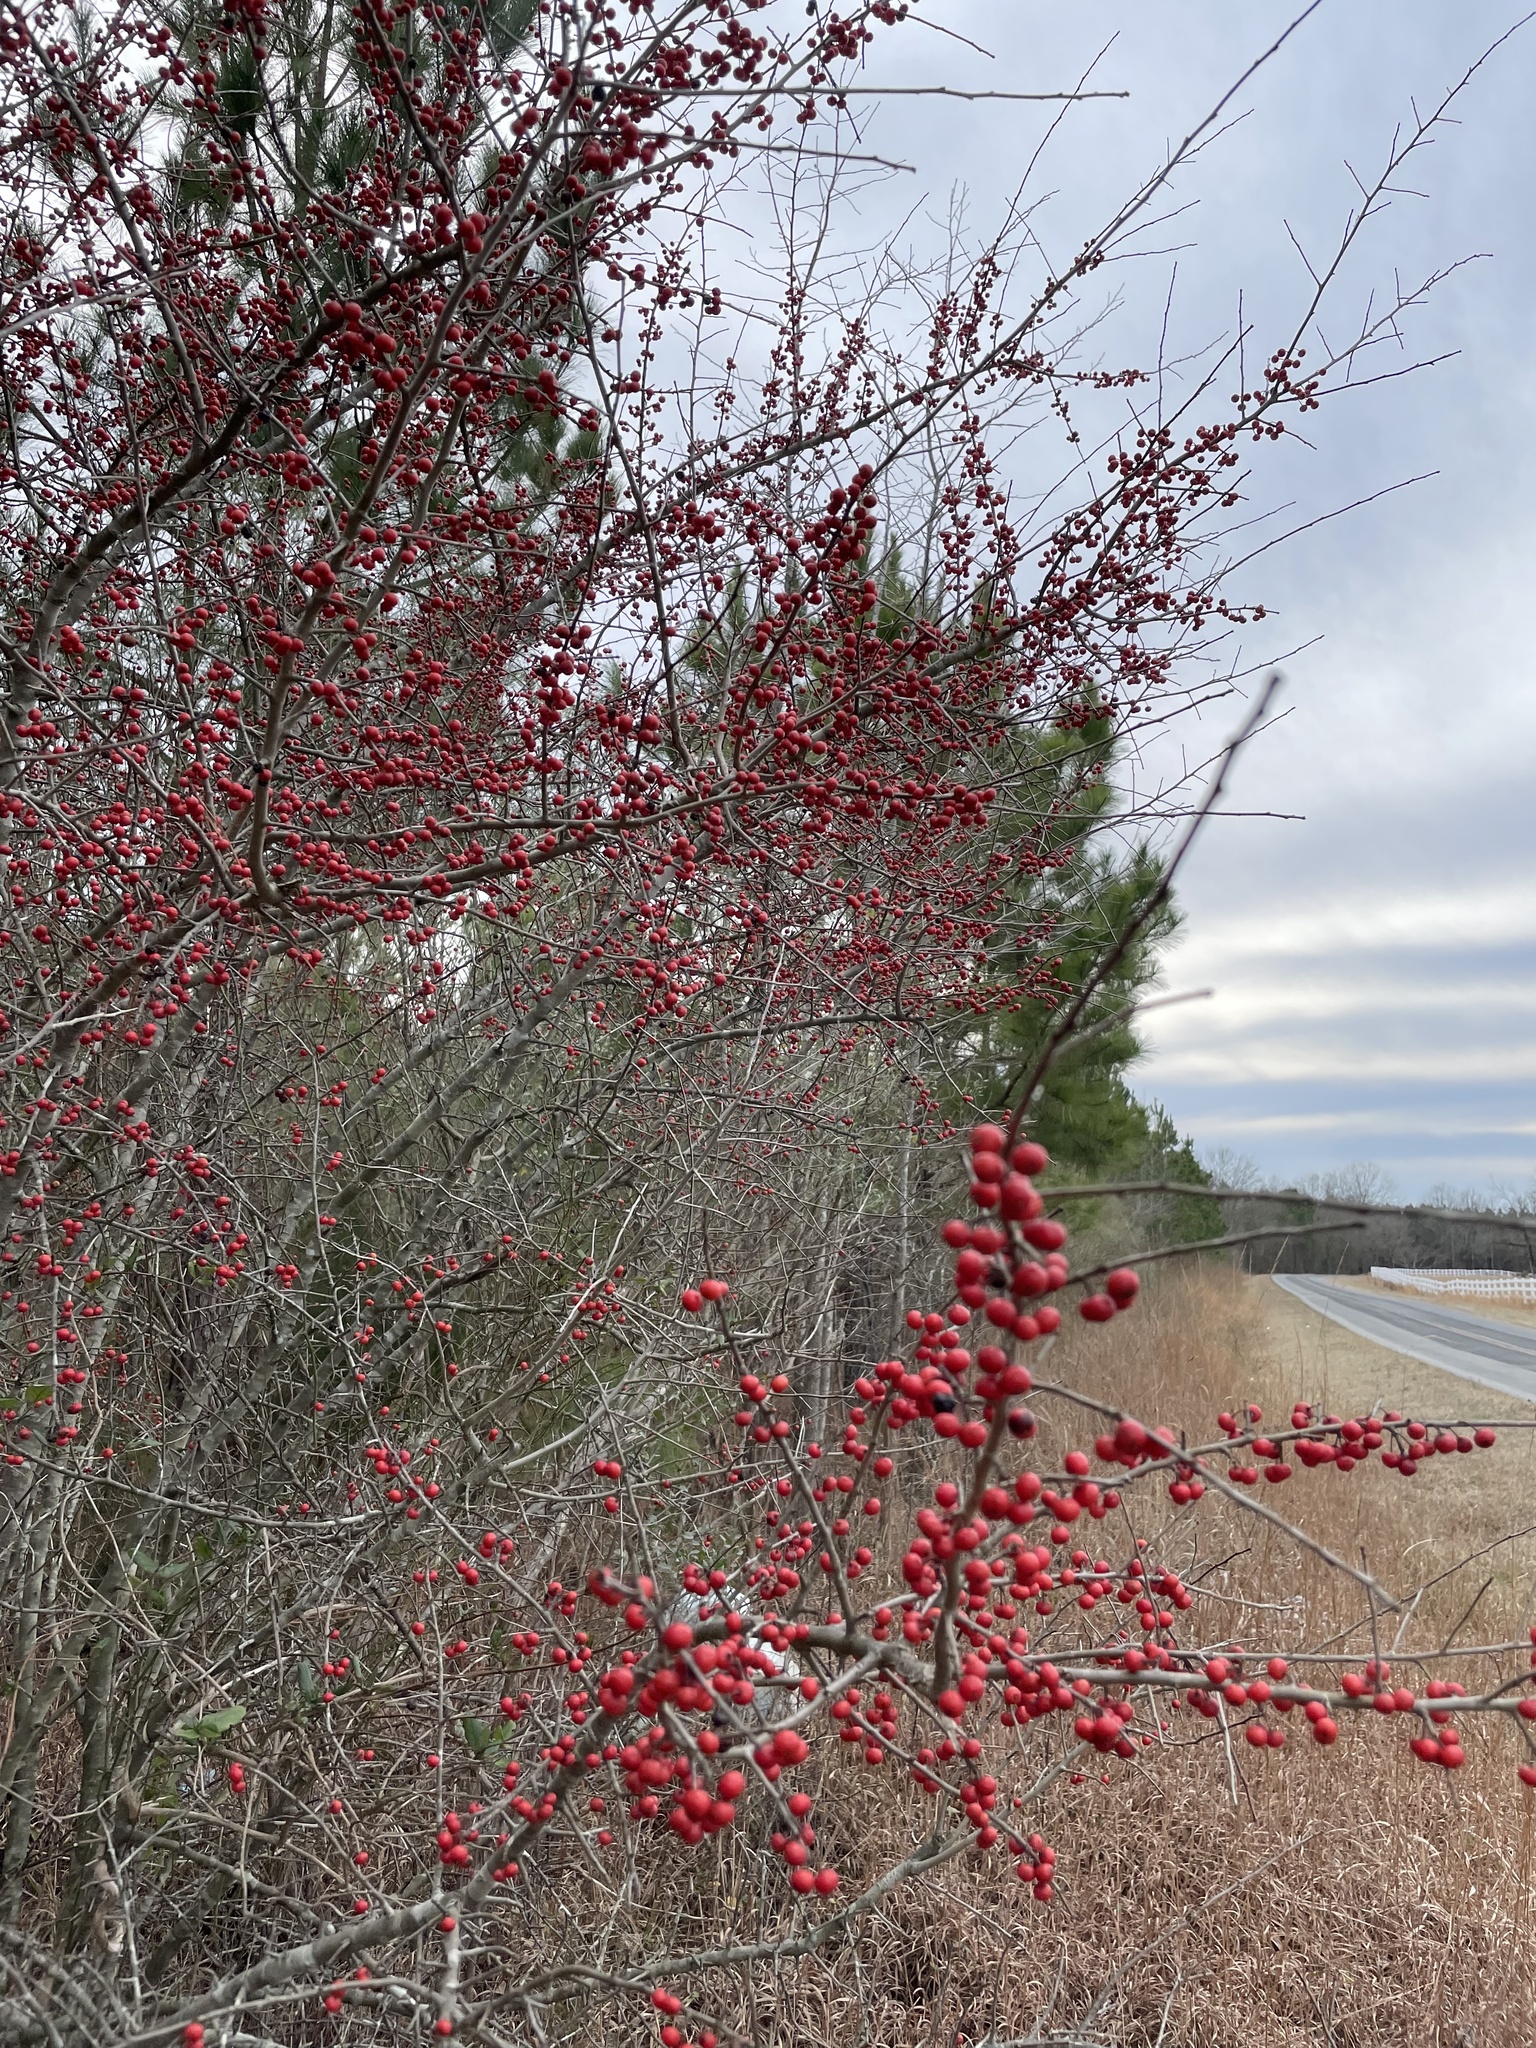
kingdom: Plantae
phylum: Tracheophyta
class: Magnoliopsida
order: Aquifoliales
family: Aquifoliaceae
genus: Ilex
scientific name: Ilex decidua
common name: Possum-haw
